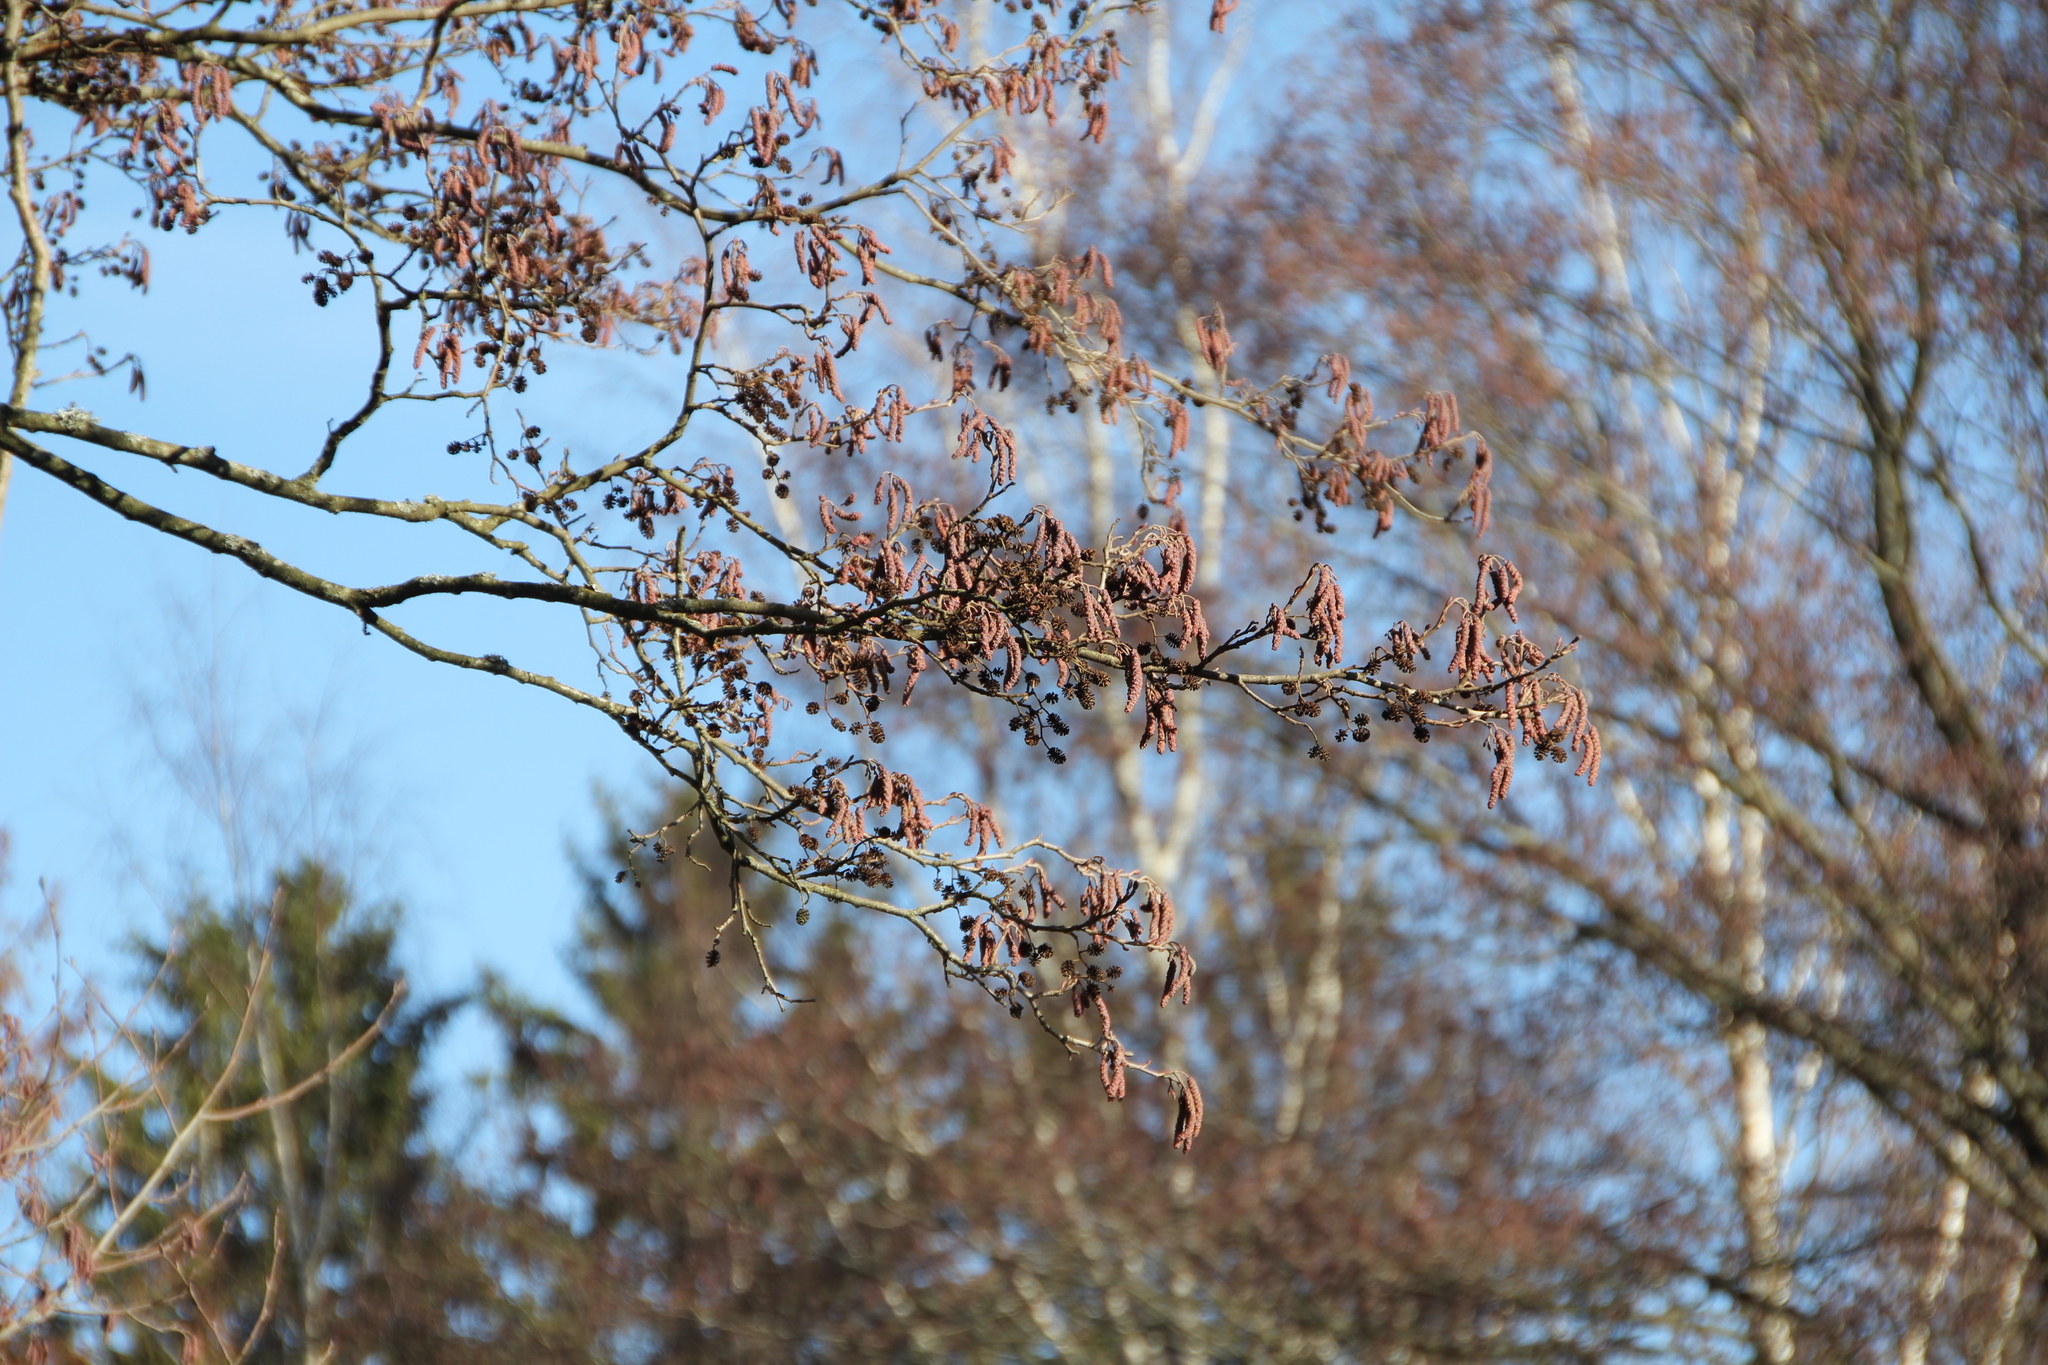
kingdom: Plantae
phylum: Tracheophyta
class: Magnoliopsida
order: Fagales
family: Betulaceae
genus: Alnus
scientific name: Alnus glutinosa
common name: Black alder
